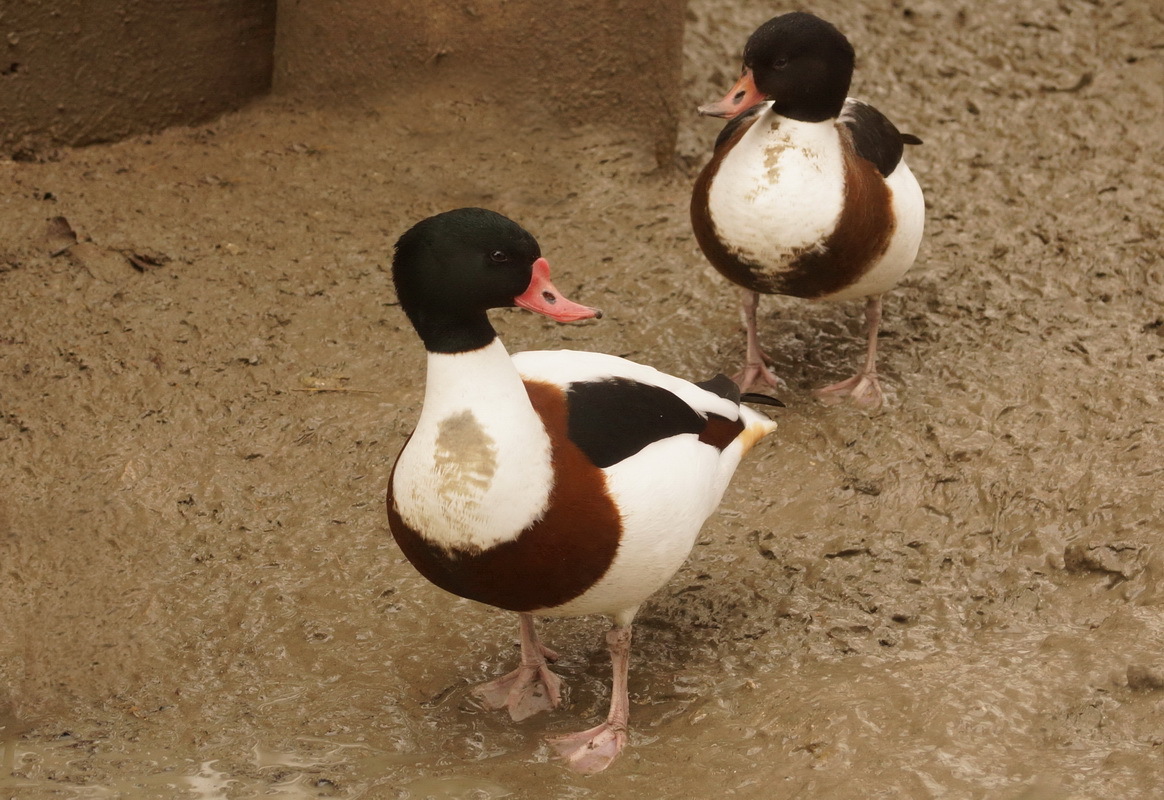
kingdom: Animalia
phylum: Chordata
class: Aves
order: Anseriformes
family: Anatidae
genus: Tadorna
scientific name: Tadorna tadorna
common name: Common shelduck
